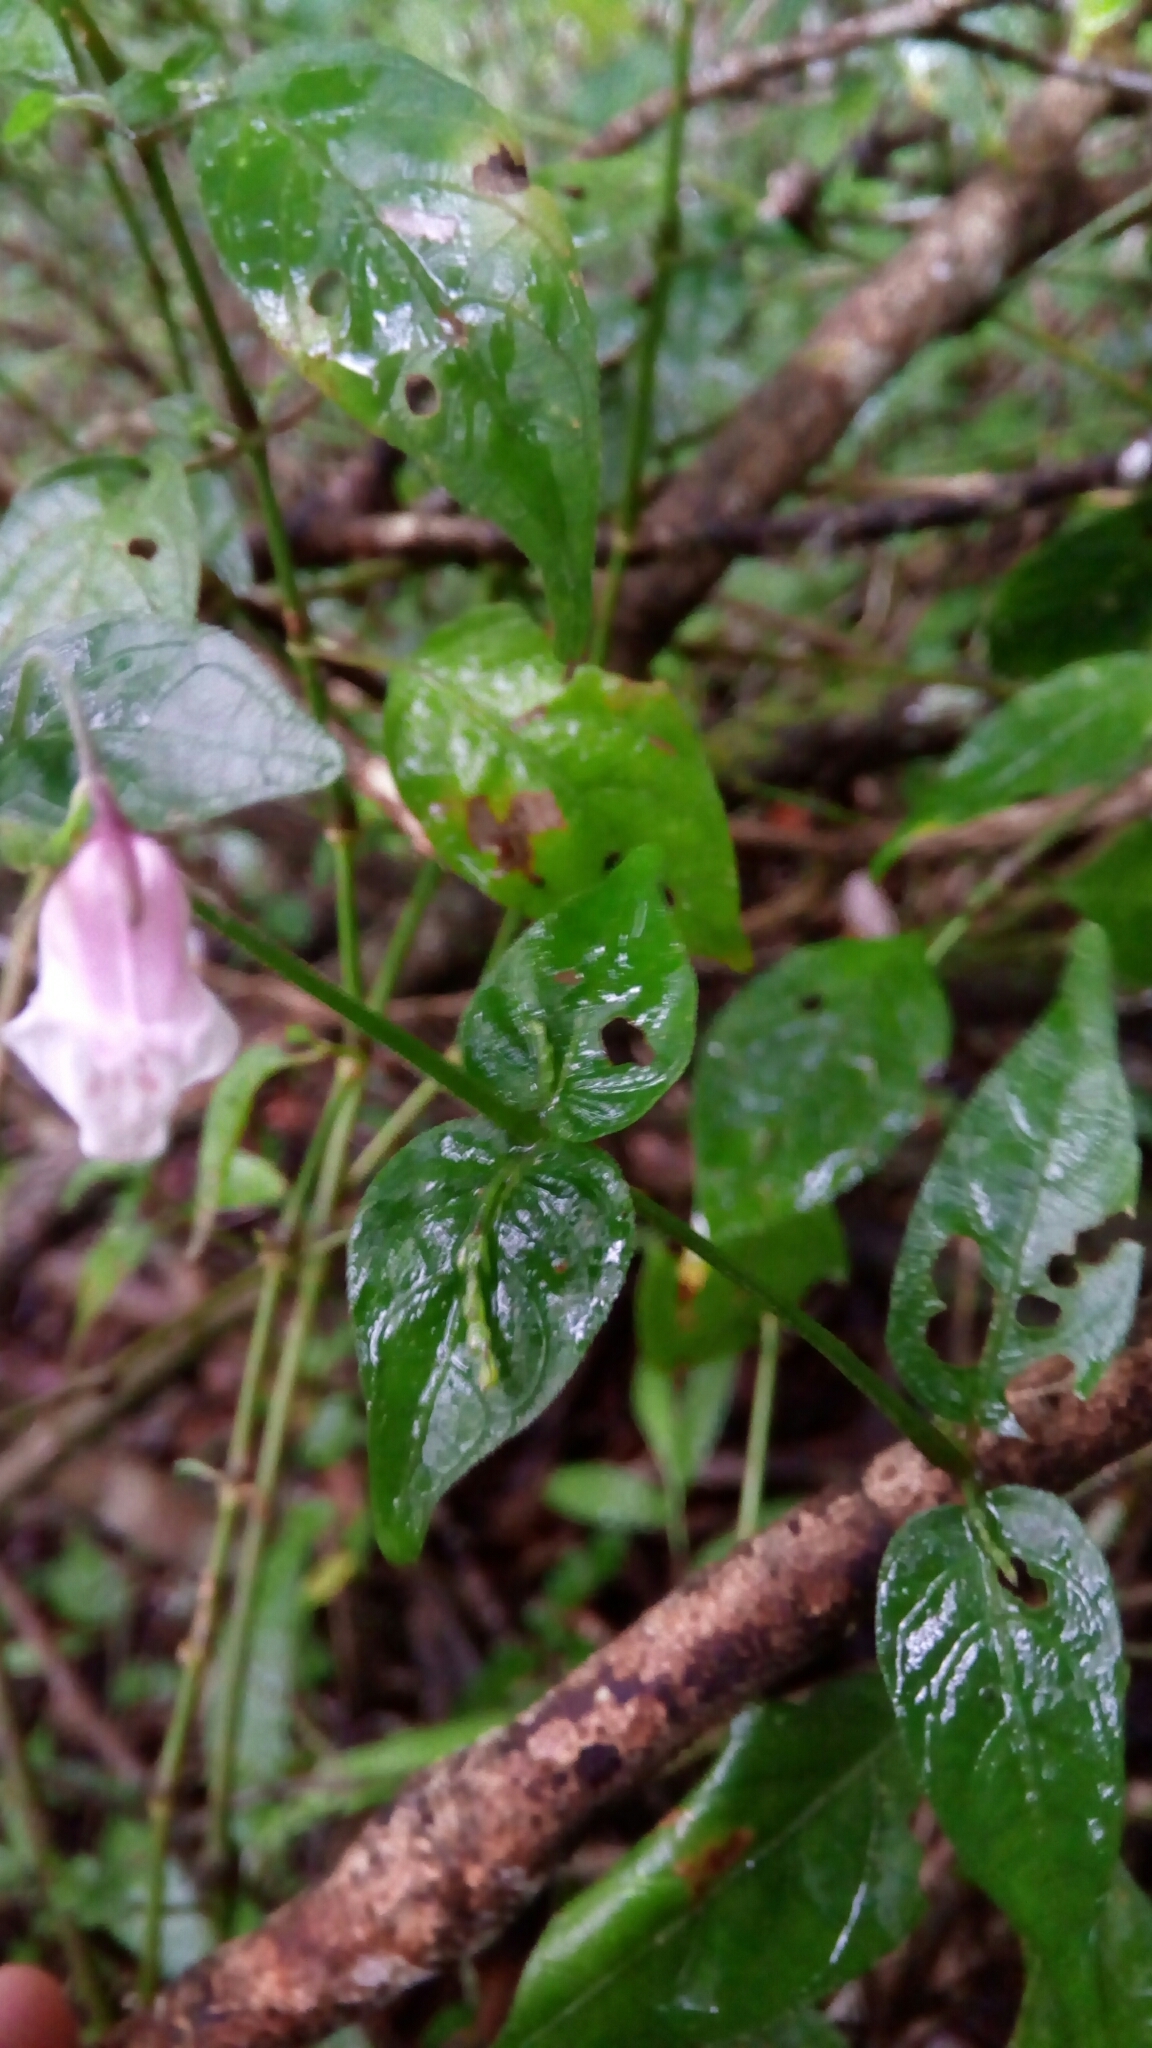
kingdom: Plantae
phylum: Tracheophyta
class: Magnoliopsida
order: Lamiales
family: Acanthaceae
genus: Isoglossa
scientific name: Isoglossa gracillima
